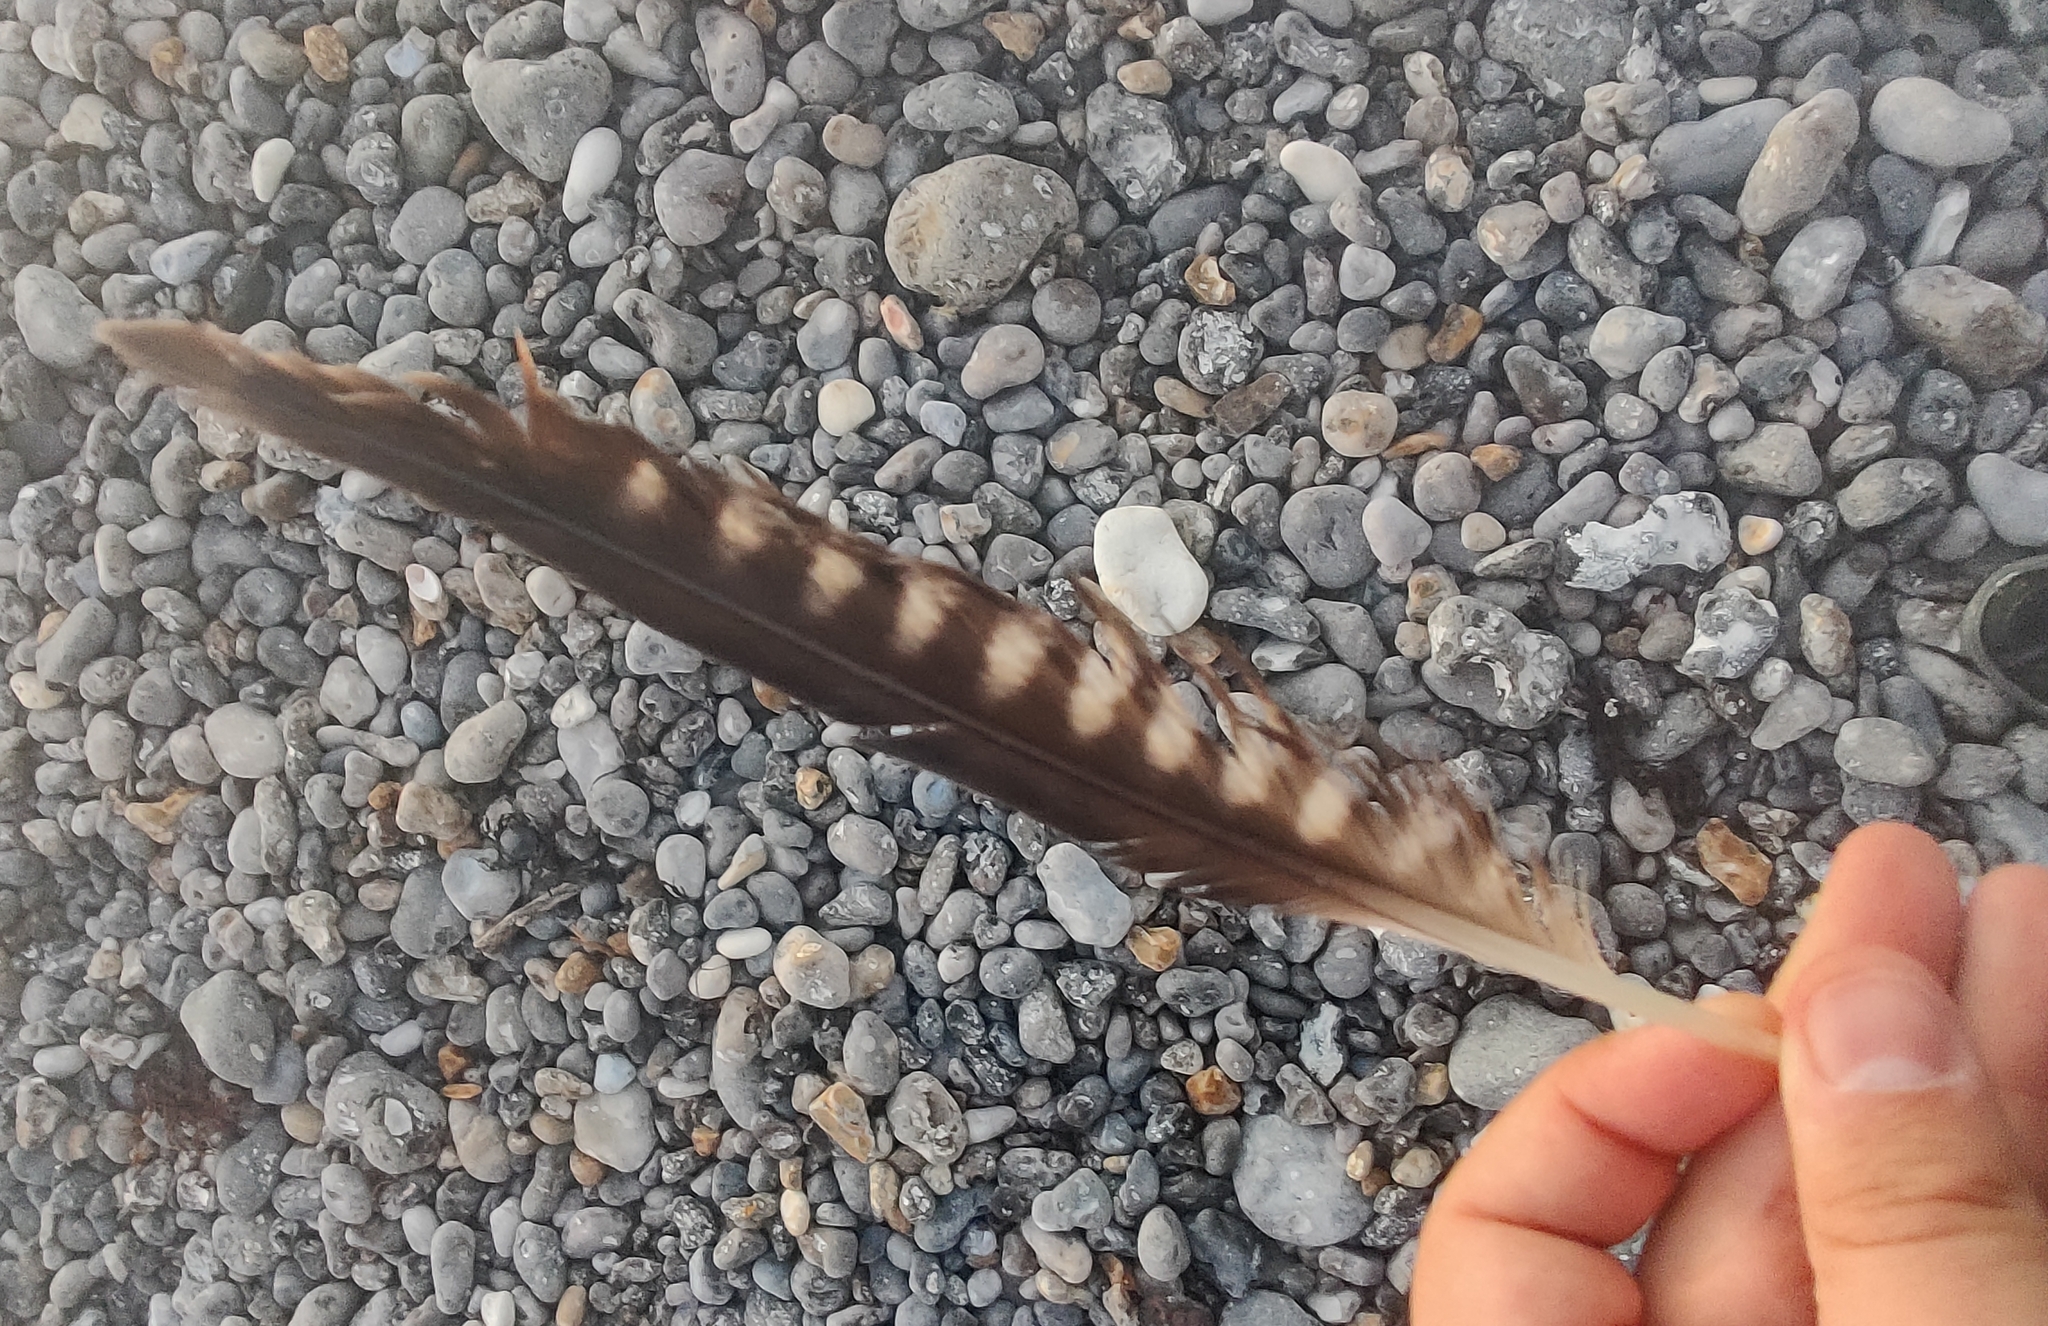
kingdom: Animalia
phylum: Chordata
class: Aves
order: Falconiformes
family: Falconidae
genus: Falco
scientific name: Falco peregrinus
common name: Peregrine falcon
